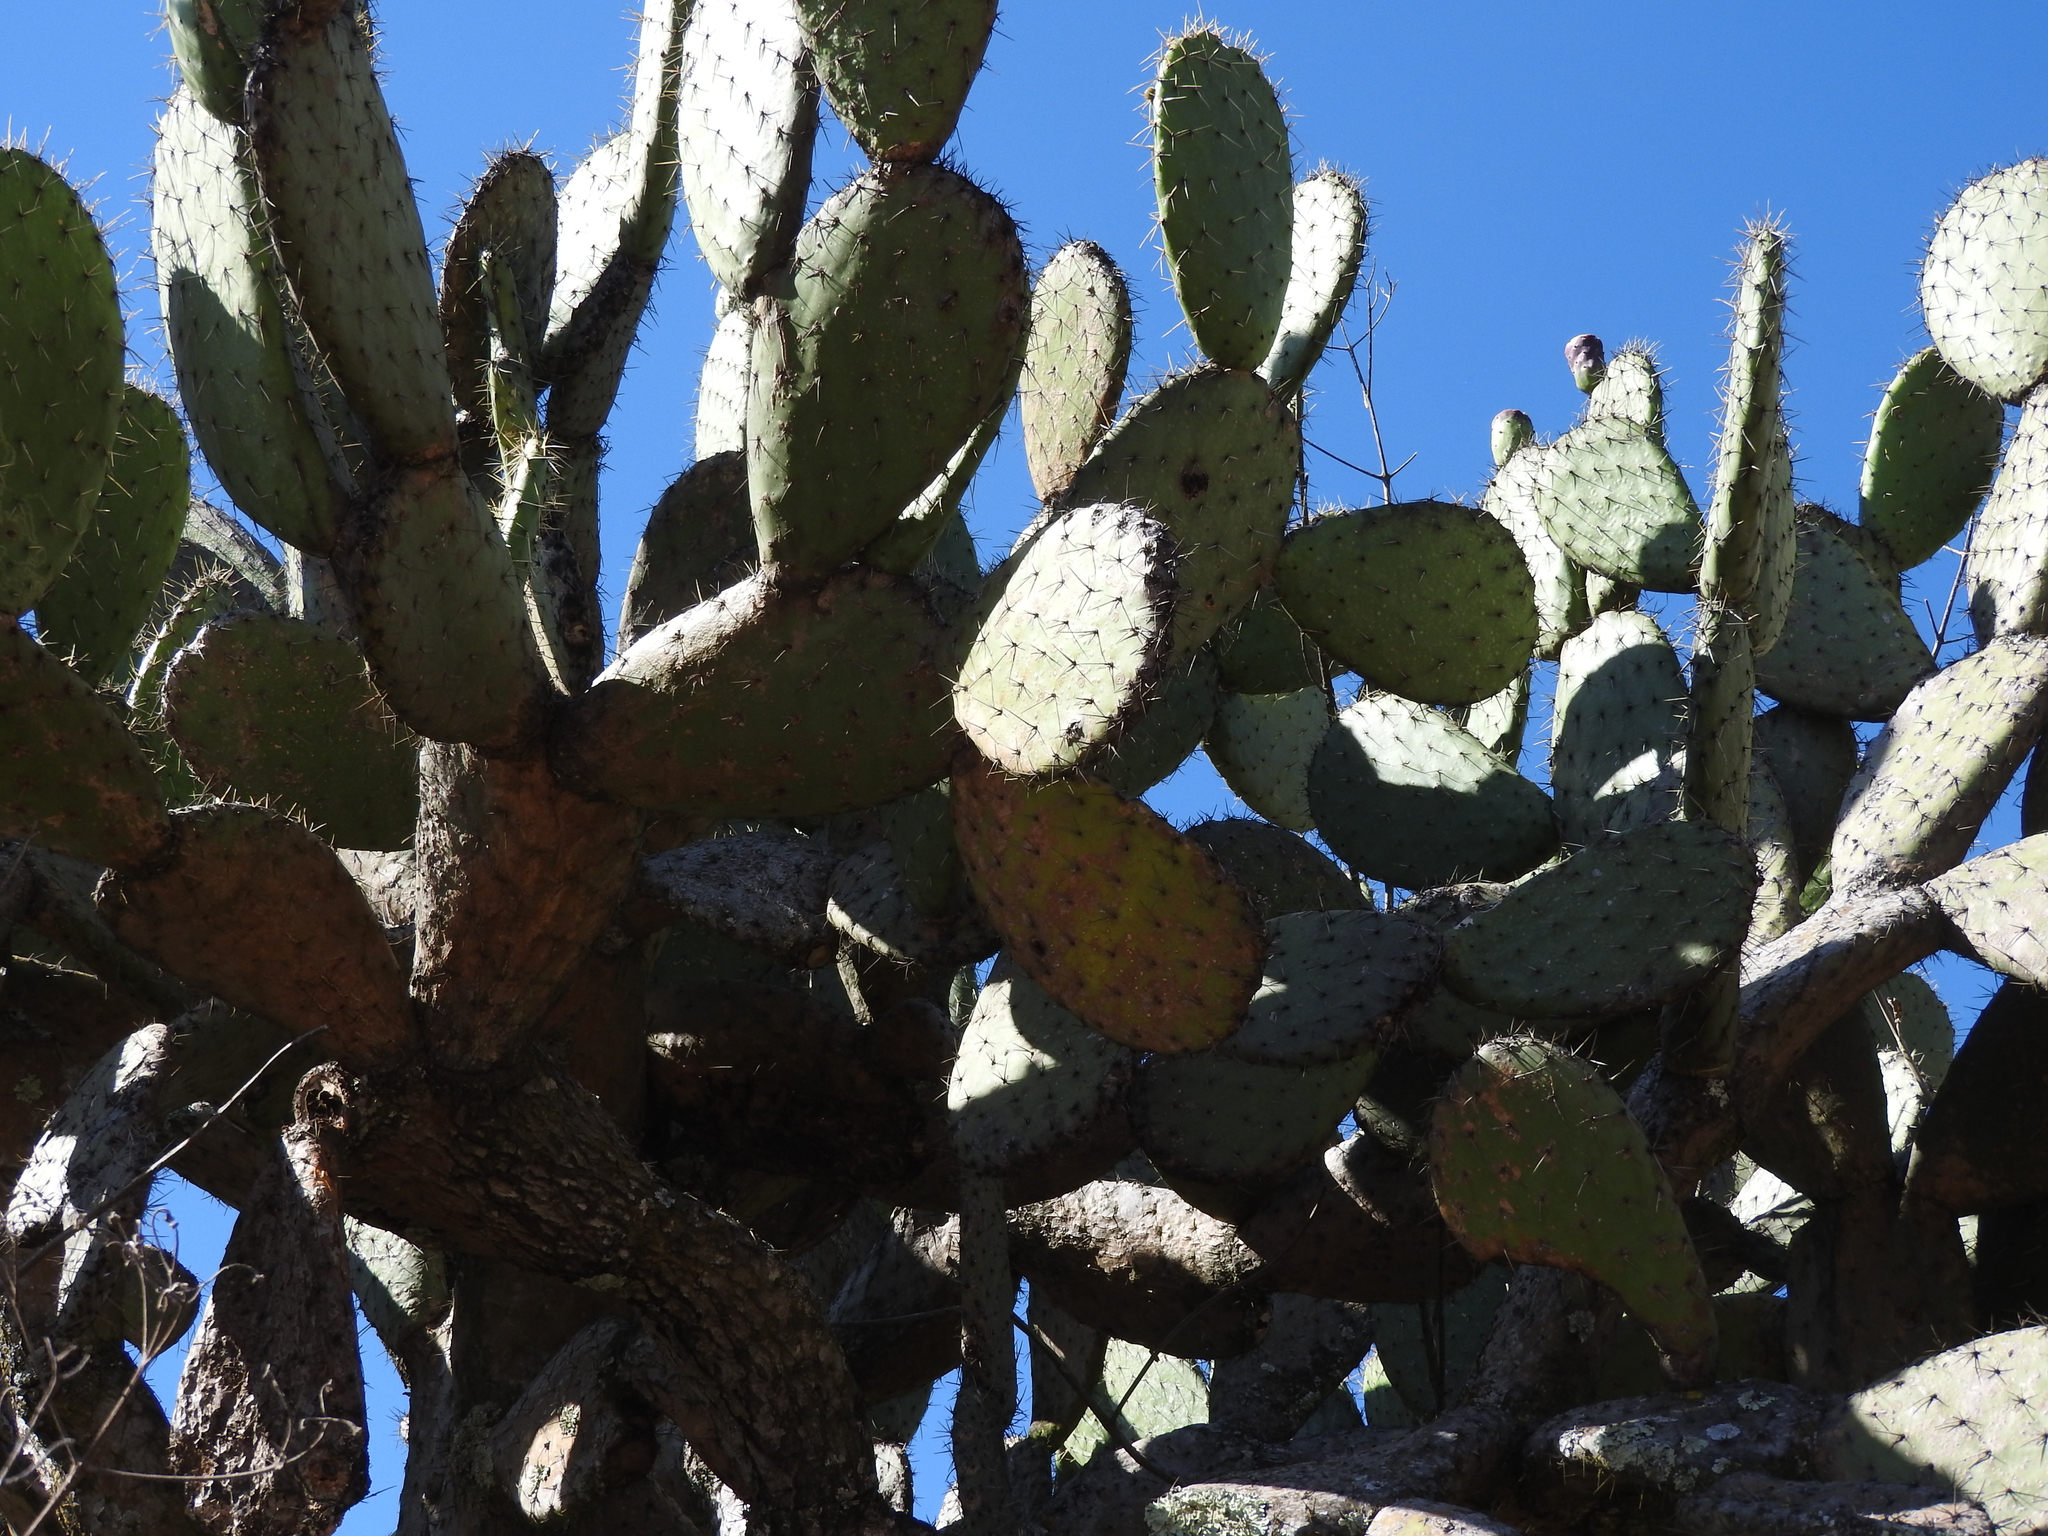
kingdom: Plantae
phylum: Tracheophyta
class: Magnoliopsida
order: Caryophyllales
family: Cactaceae
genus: Opuntia
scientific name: Opuntia streptacantha
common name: Gracemere-pear
